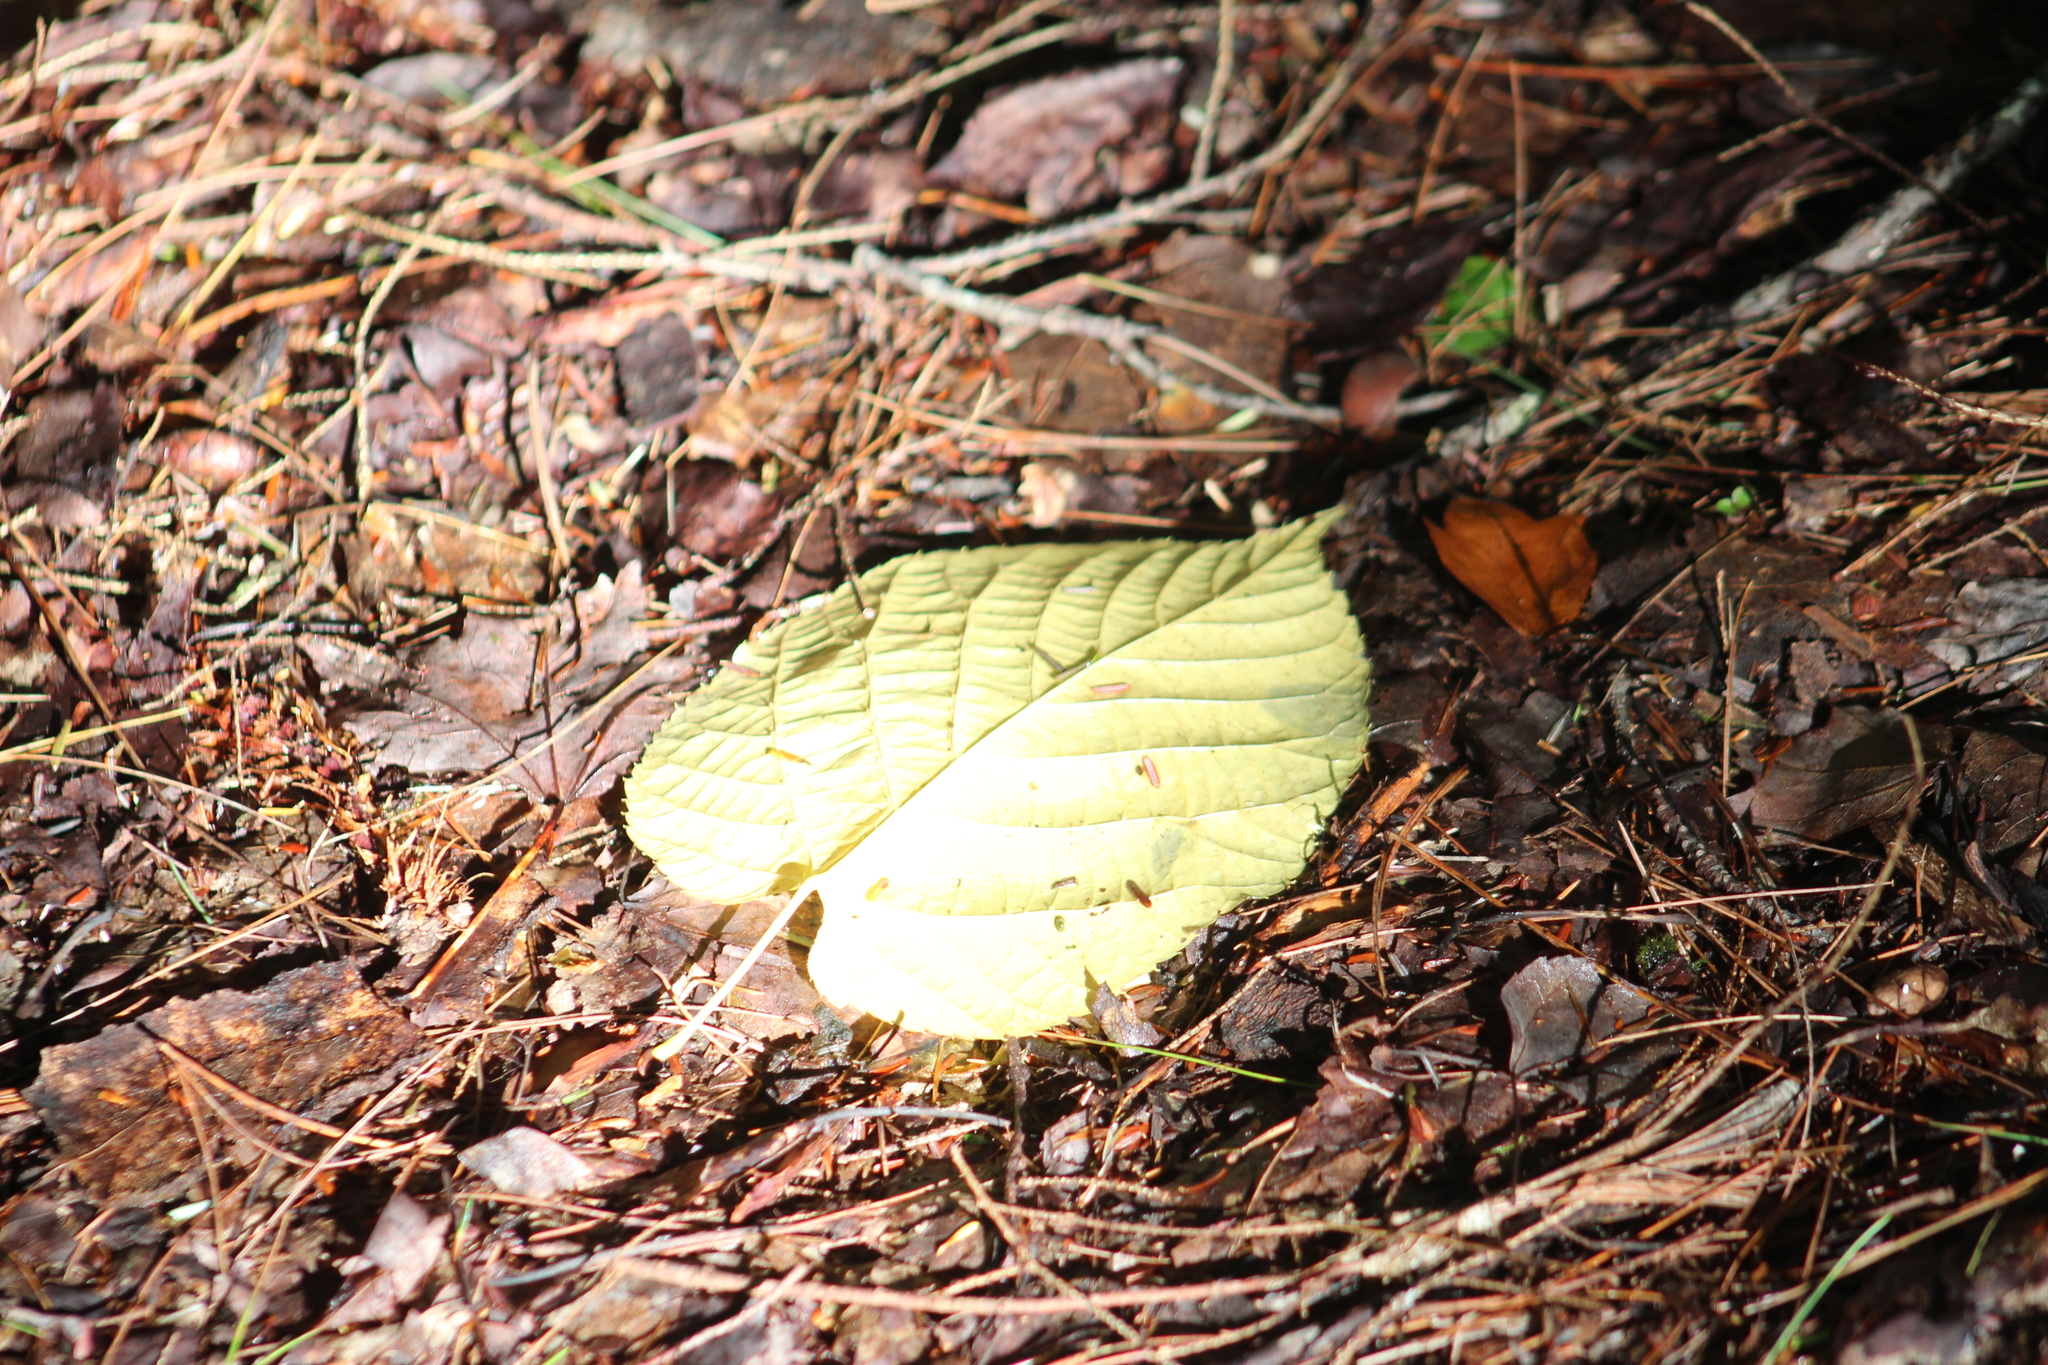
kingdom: Plantae
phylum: Tracheophyta
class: Magnoliopsida
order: Malvales
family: Malvaceae
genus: Tilia
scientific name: Tilia americana
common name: Basswood
